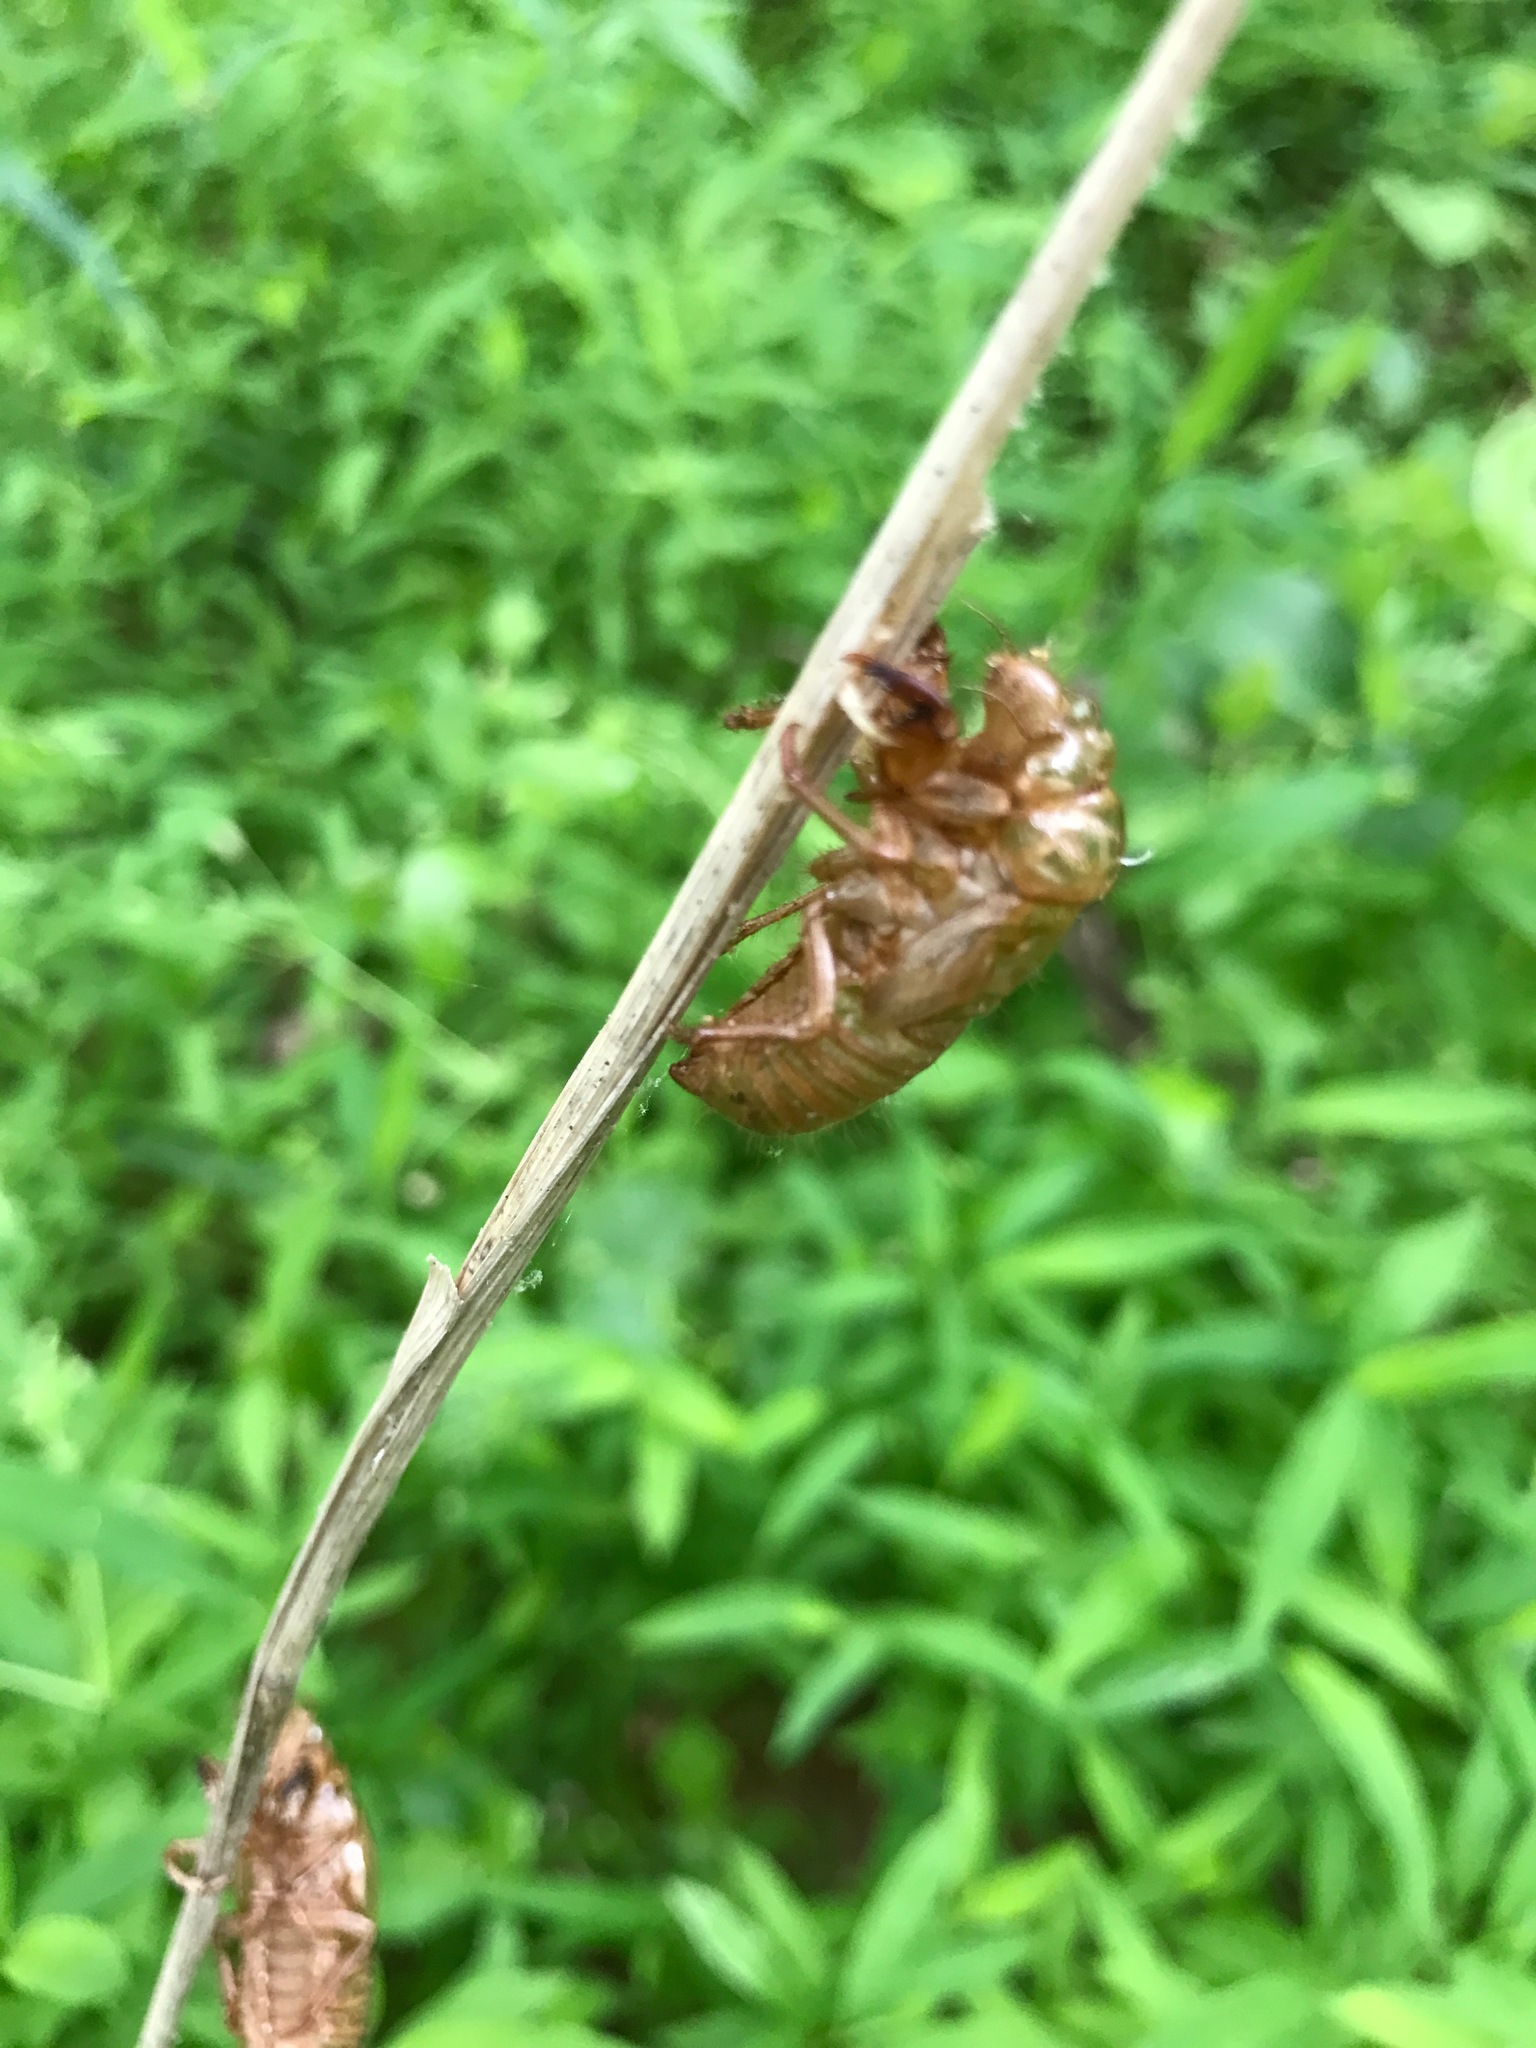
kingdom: Animalia
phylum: Arthropoda
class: Insecta
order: Hemiptera
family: Cicadidae
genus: Magicicada
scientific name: Magicicada
